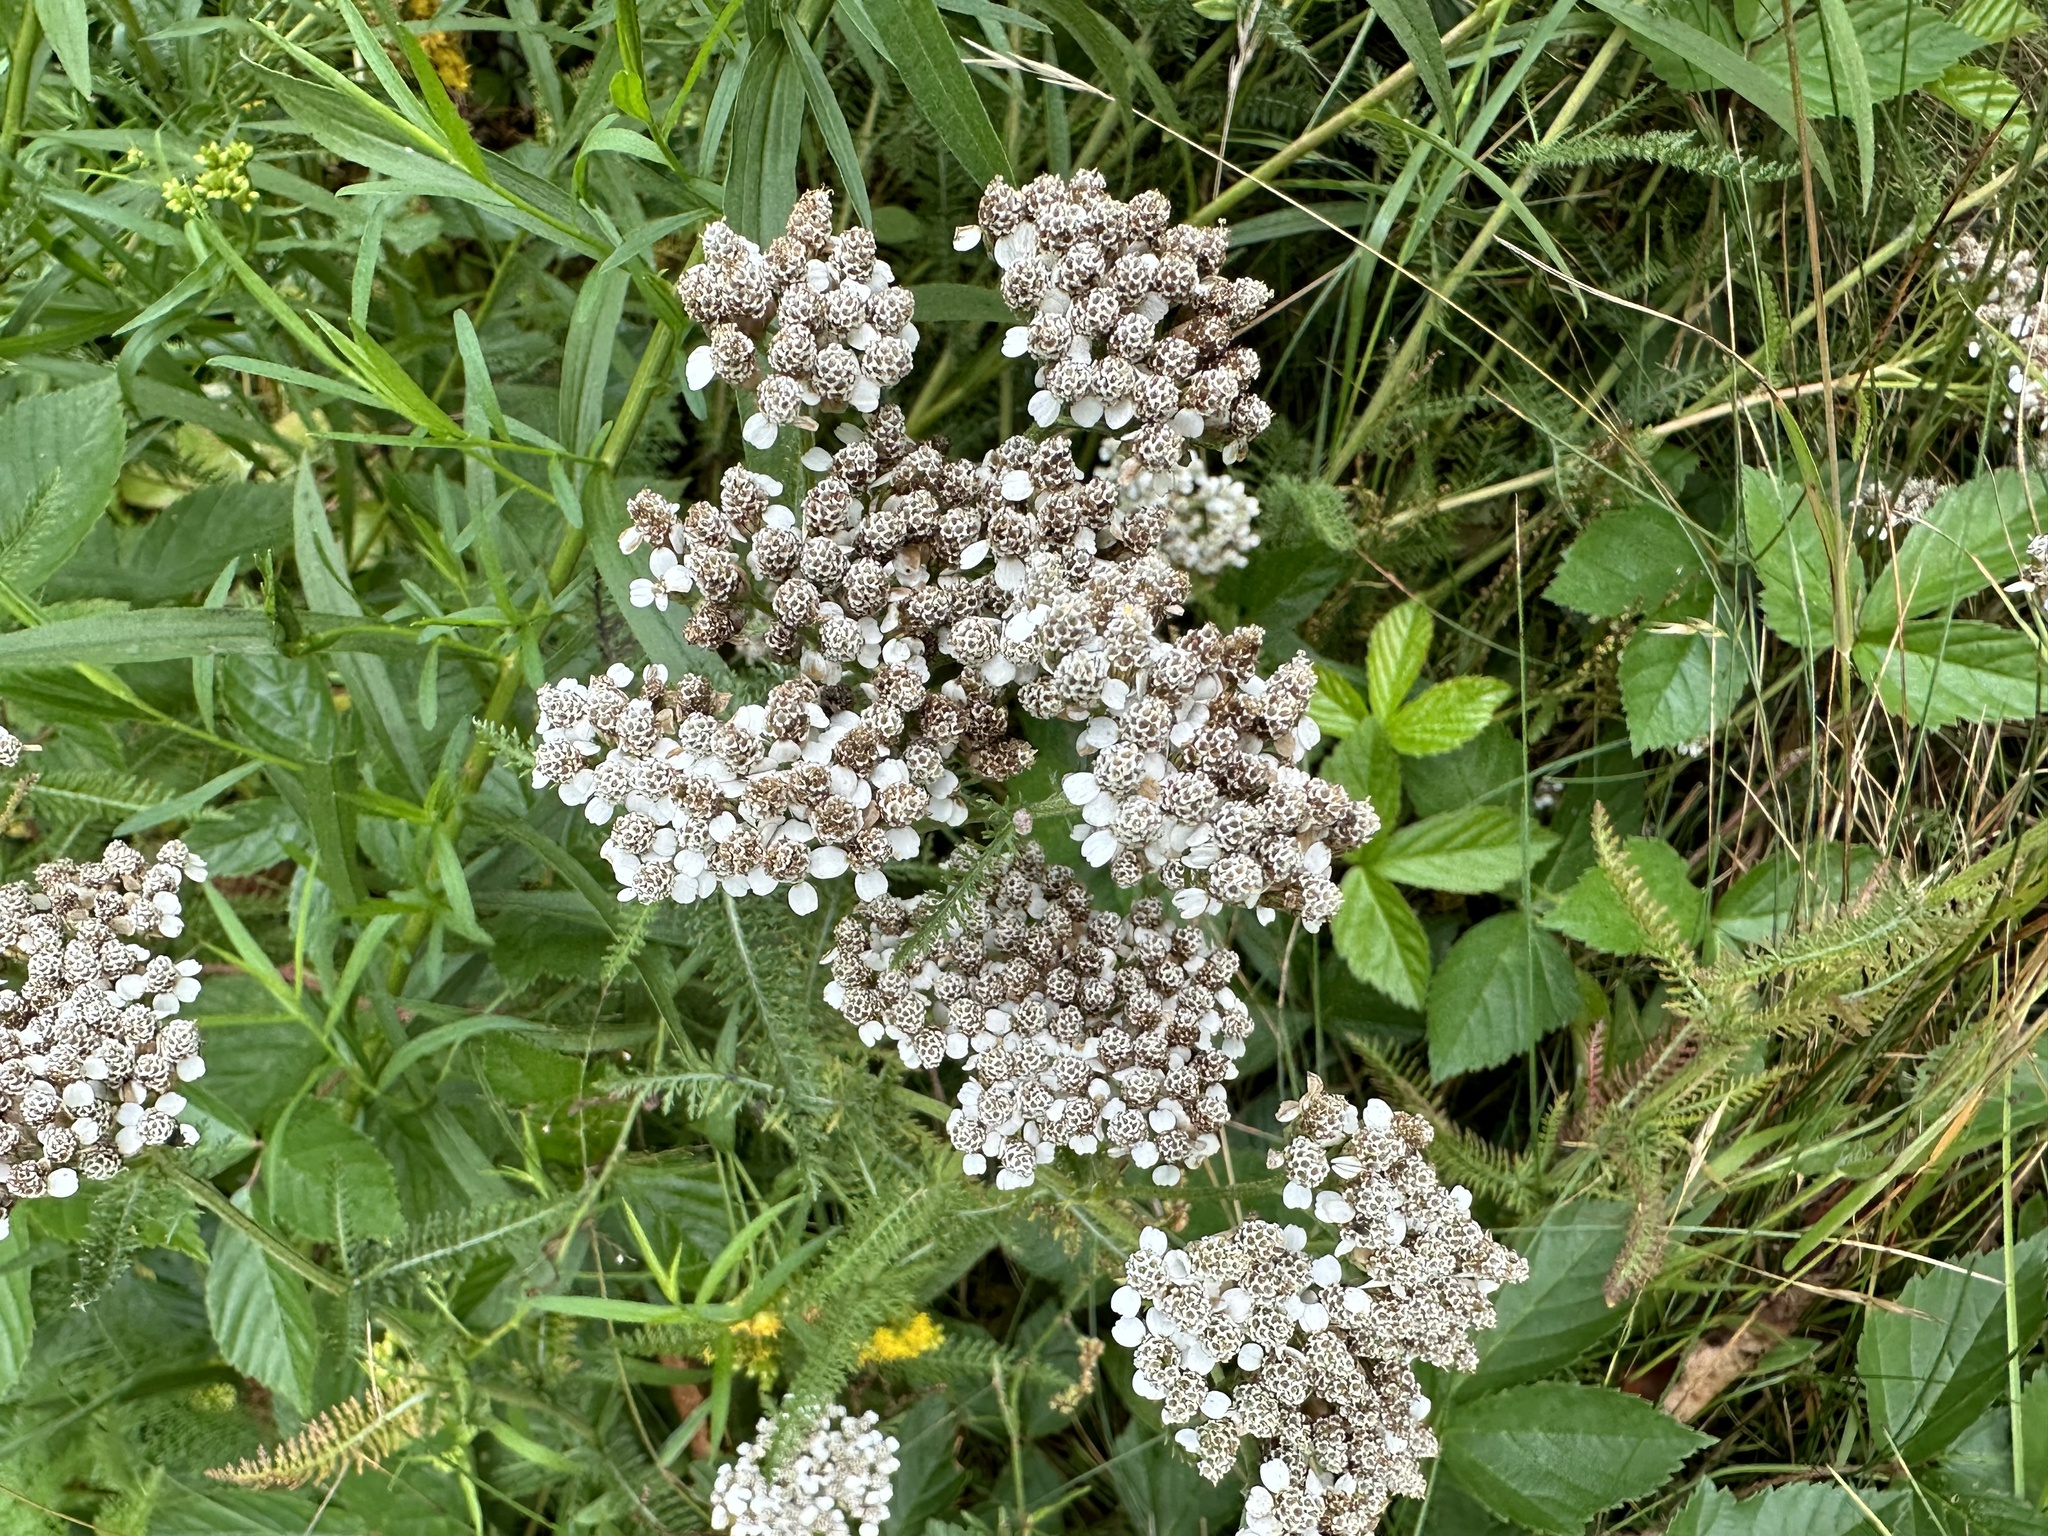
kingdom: Plantae
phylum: Tracheophyta
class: Magnoliopsida
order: Asterales
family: Asteraceae
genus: Achillea
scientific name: Achillea millefolium
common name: Yarrow
